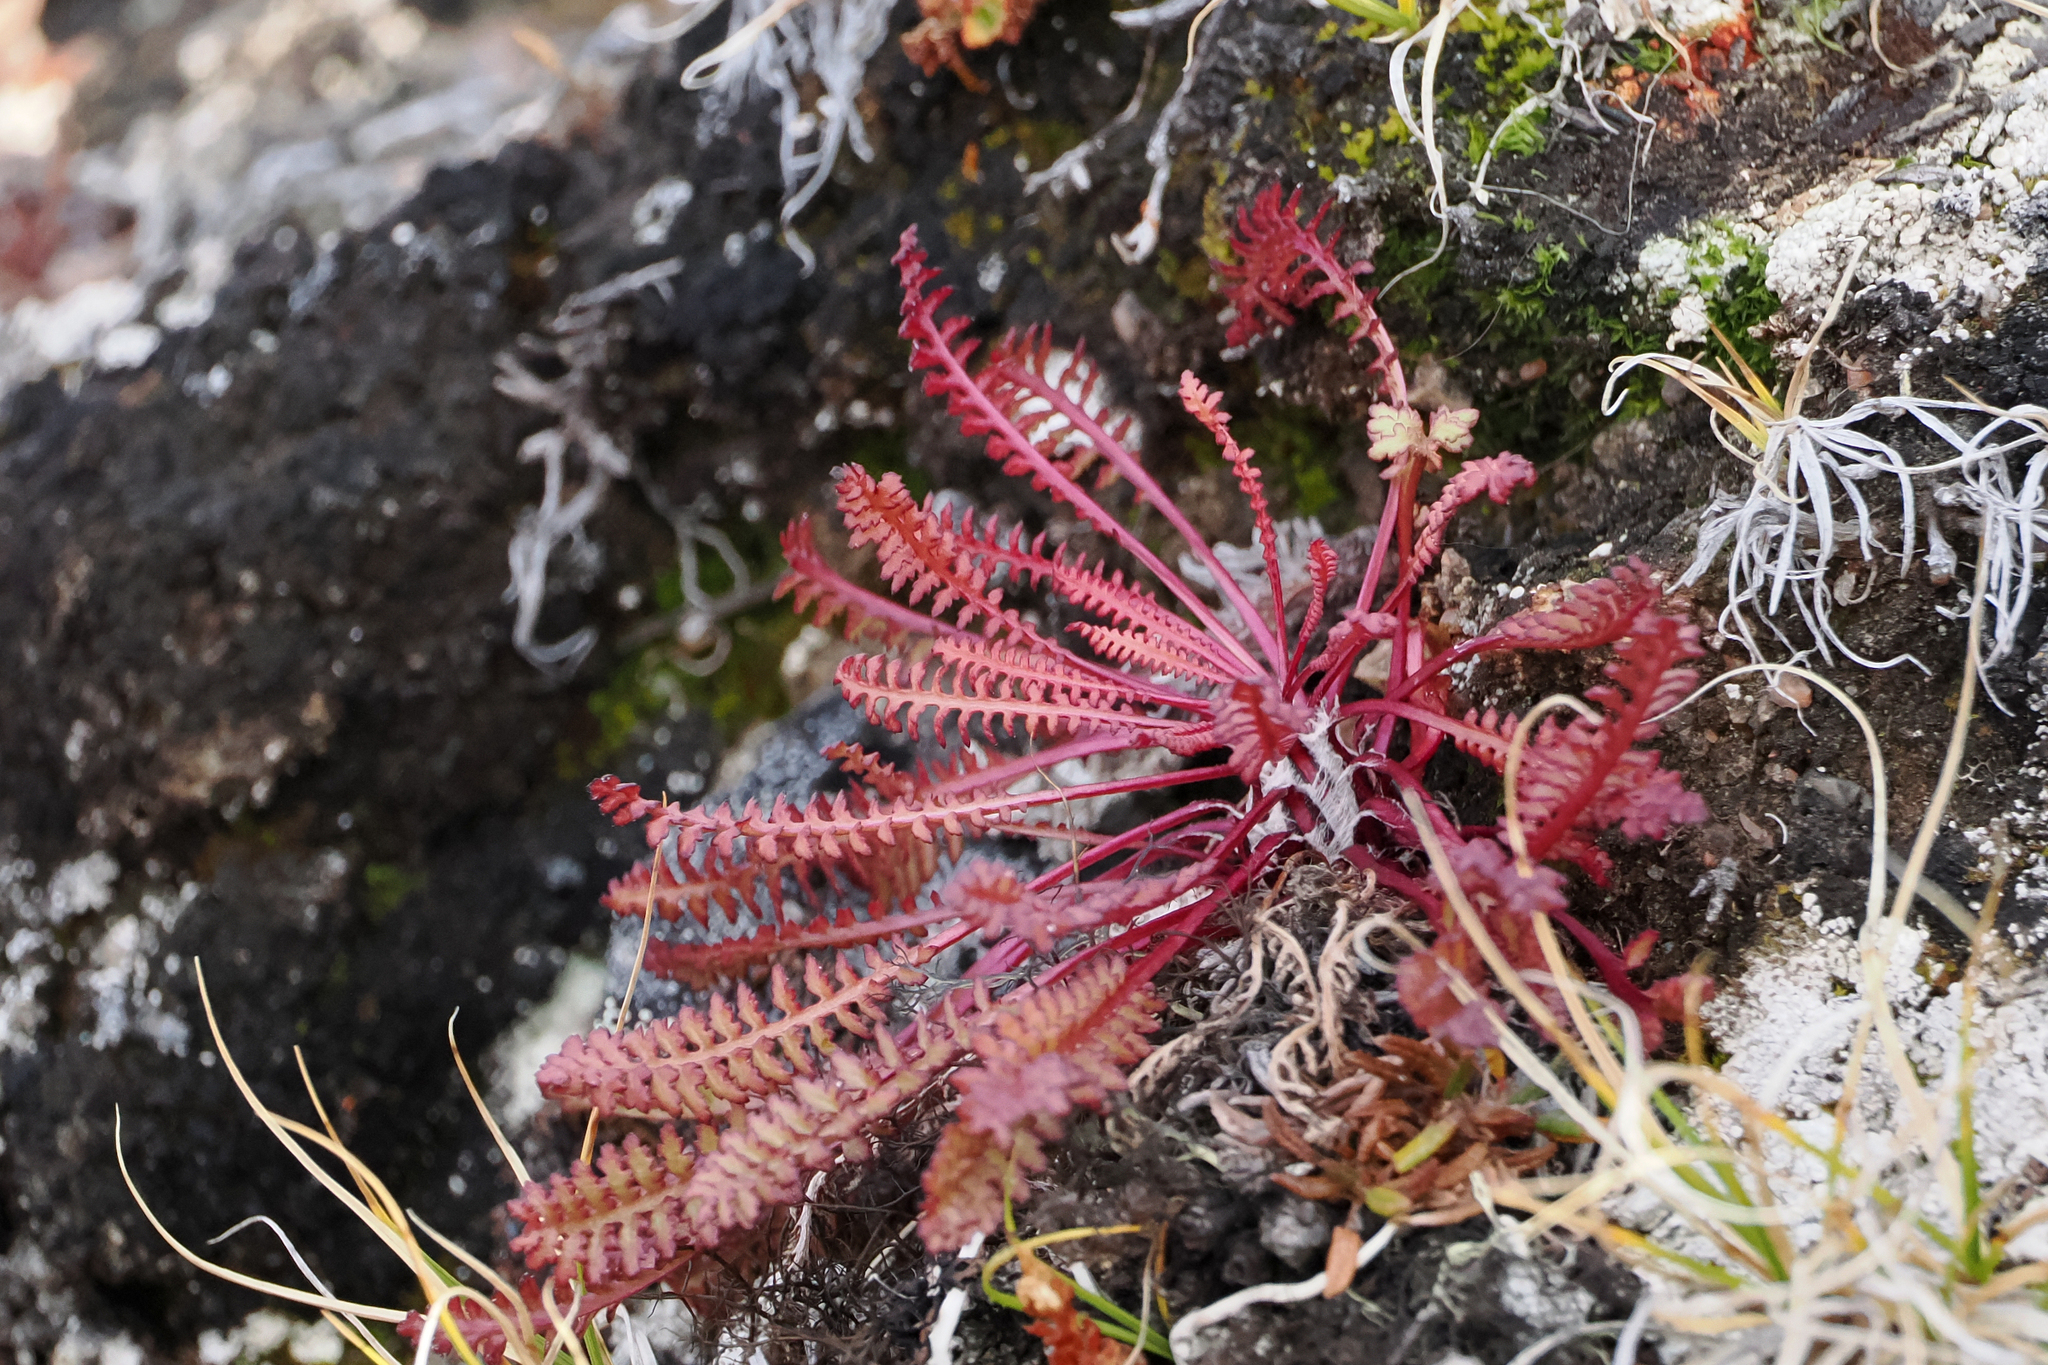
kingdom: Plantae
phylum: Tracheophyta
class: Magnoliopsida
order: Lamiales
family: Orobanchaceae
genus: Pedicularis
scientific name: Pedicularis lanata
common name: Woolly lousewort
